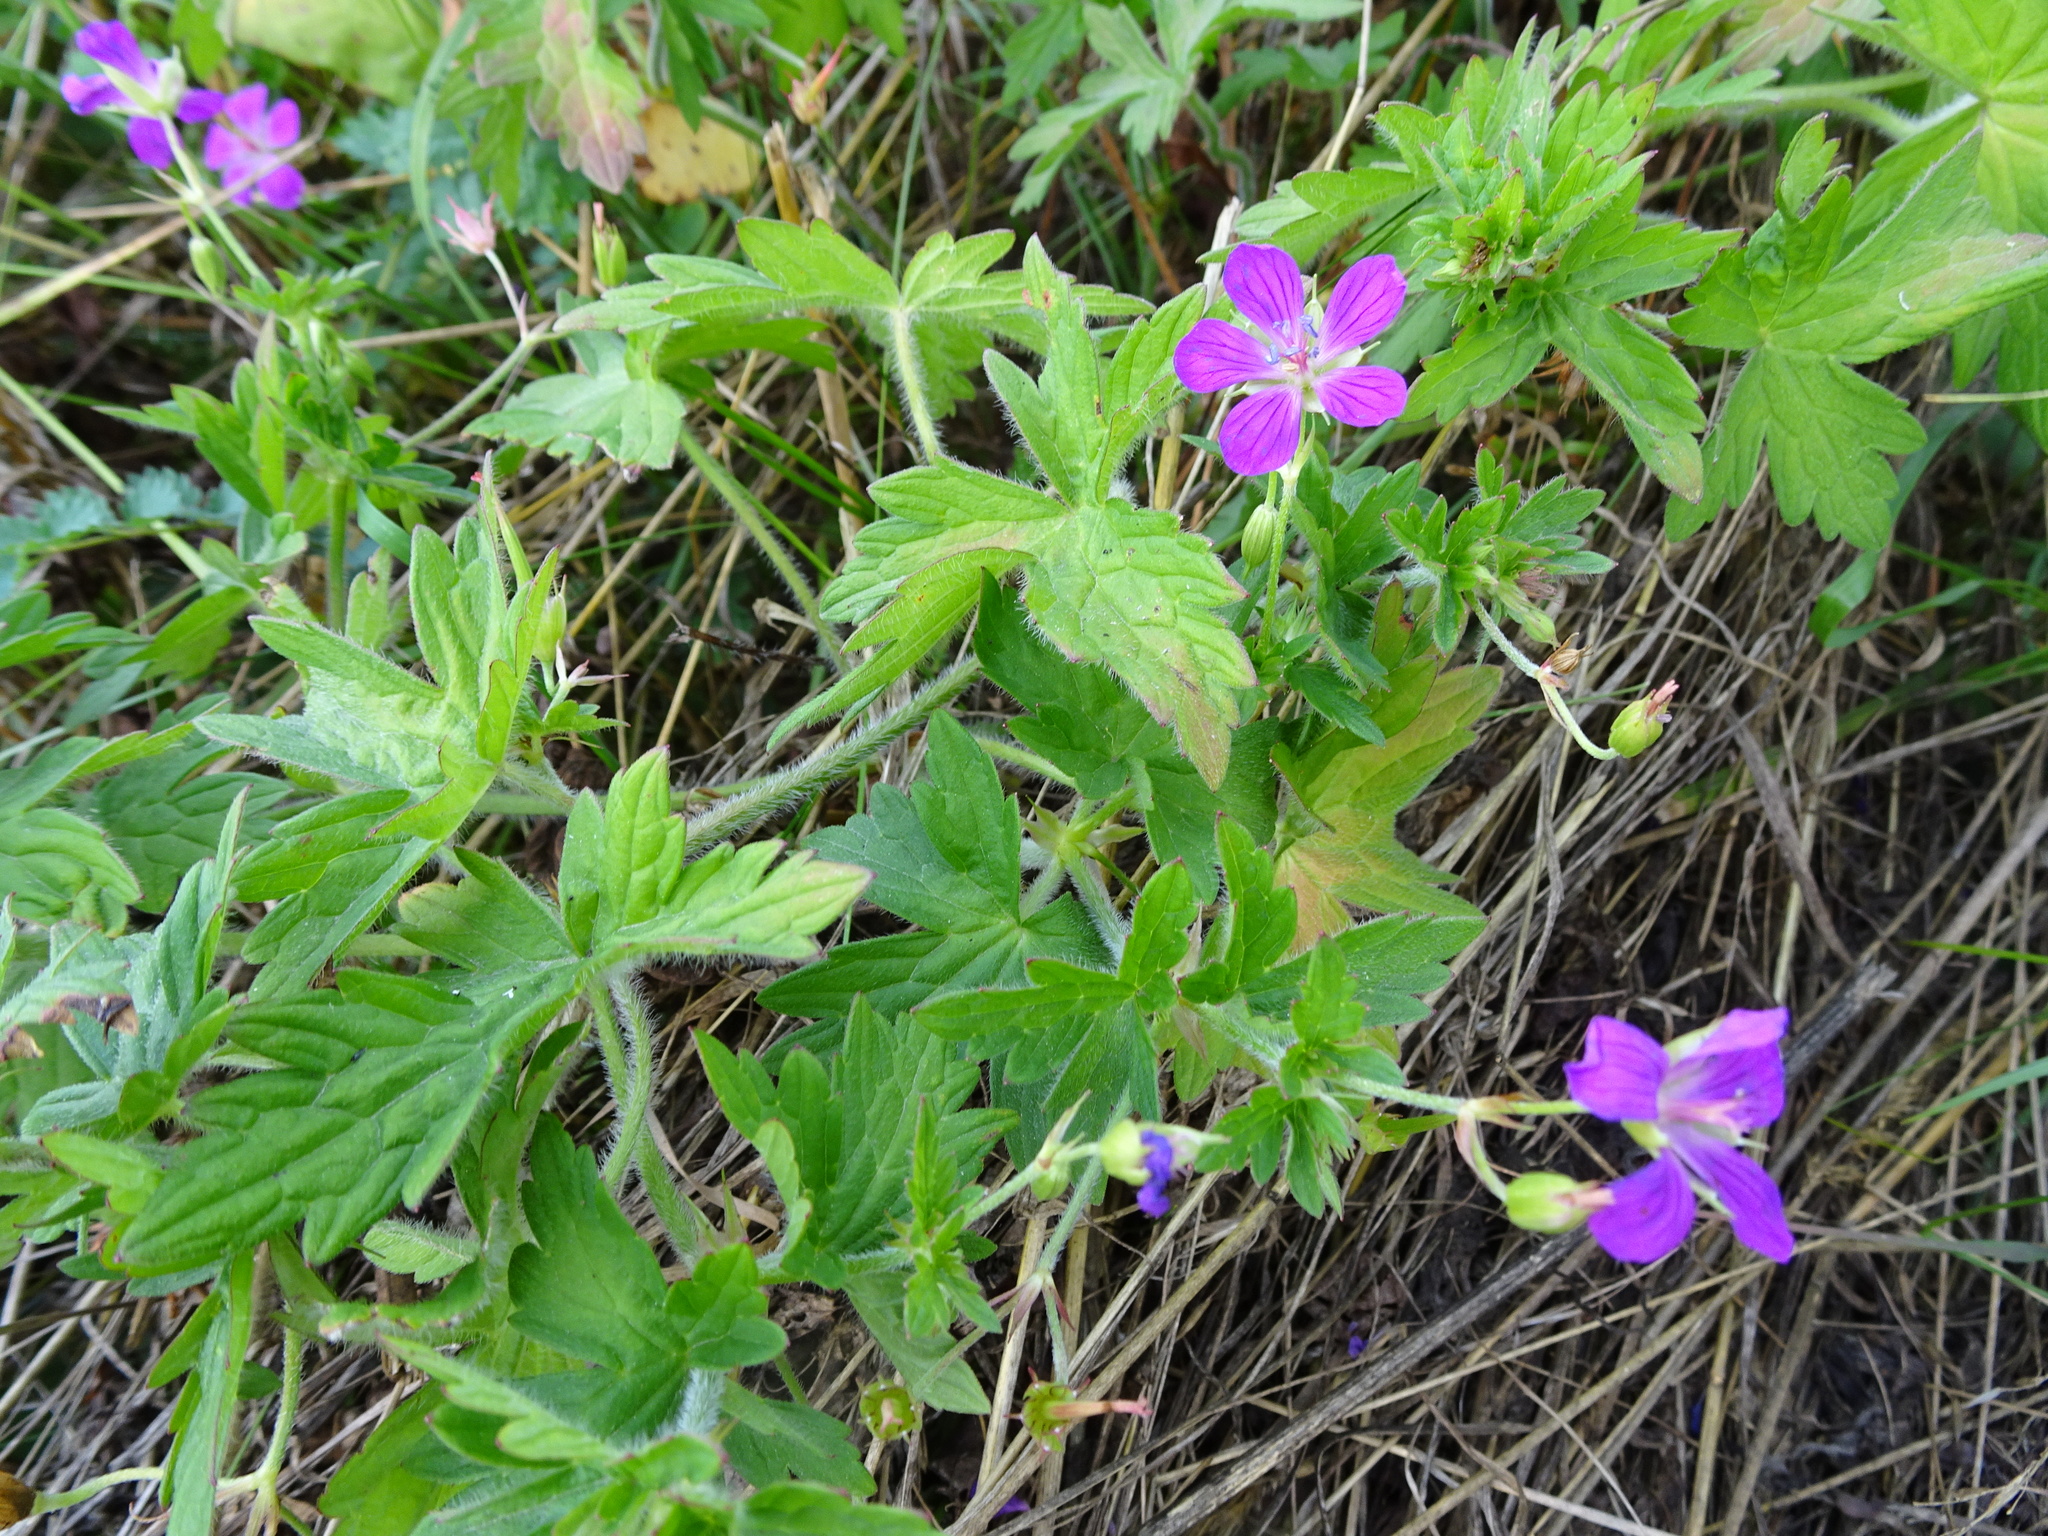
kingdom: Plantae
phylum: Tracheophyta
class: Magnoliopsida
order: Geraniales
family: Geraniaceae
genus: Geranium
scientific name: Geranium palustre
